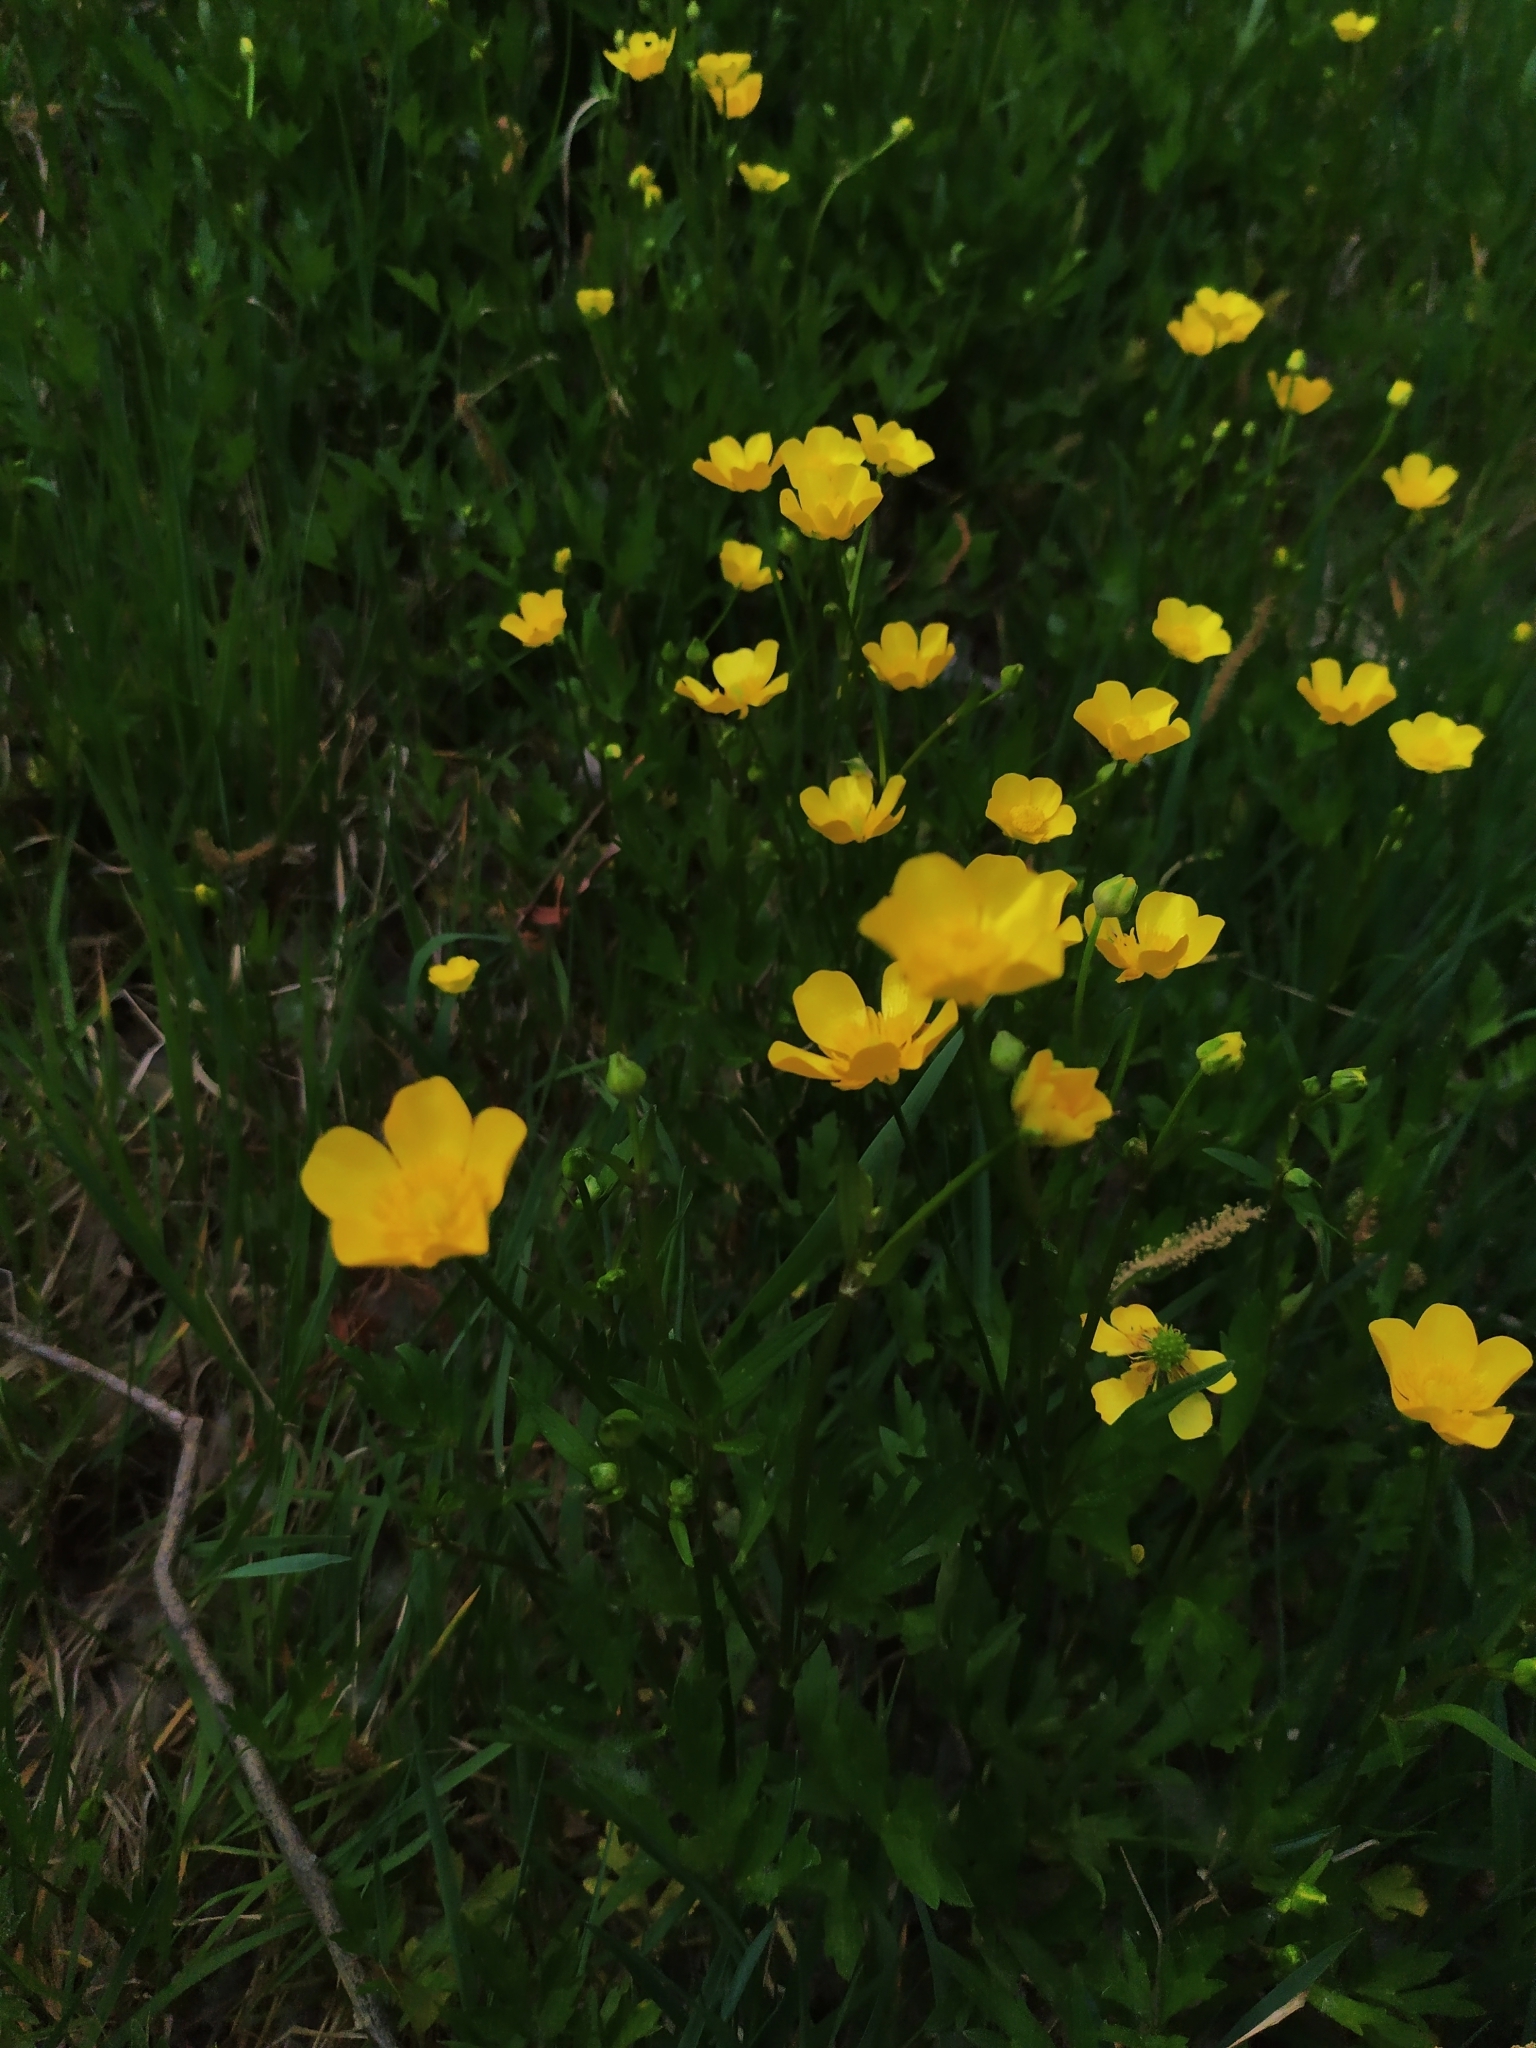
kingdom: Plantae
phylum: Tracheophyta
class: Magnoliopsida
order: Ranunculales
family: Ranunculaceae
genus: Ranunculus
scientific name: Ranunculus repens
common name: Creeping buttercup
